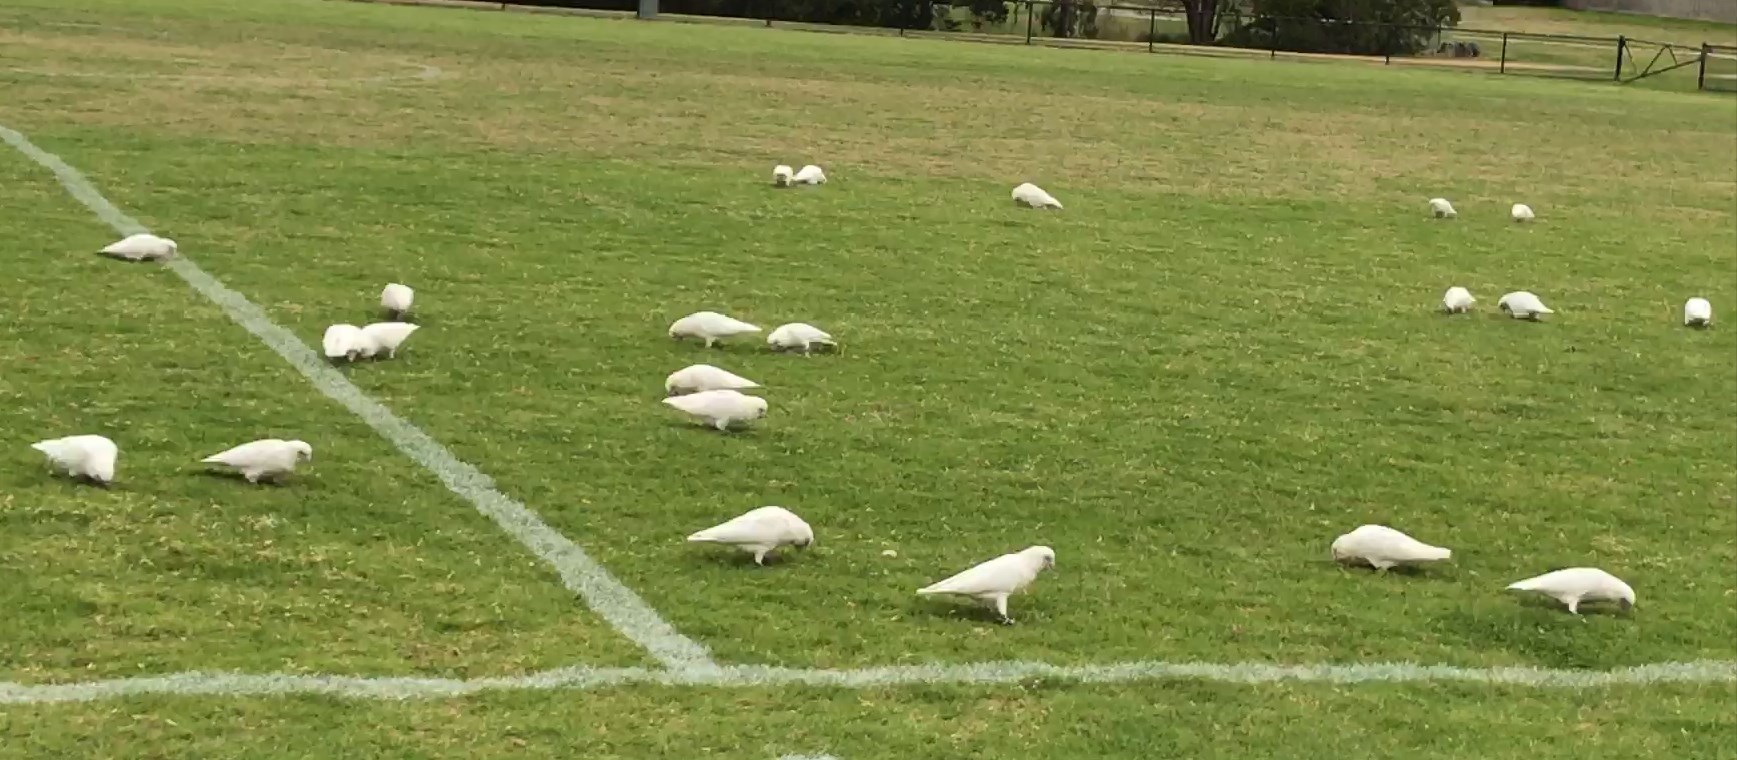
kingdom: Animalia
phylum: Chordata
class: Aves
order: Psittaciformes
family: Psittacidae
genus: Cacatua
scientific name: Cacatua sanguinea
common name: Little corella
